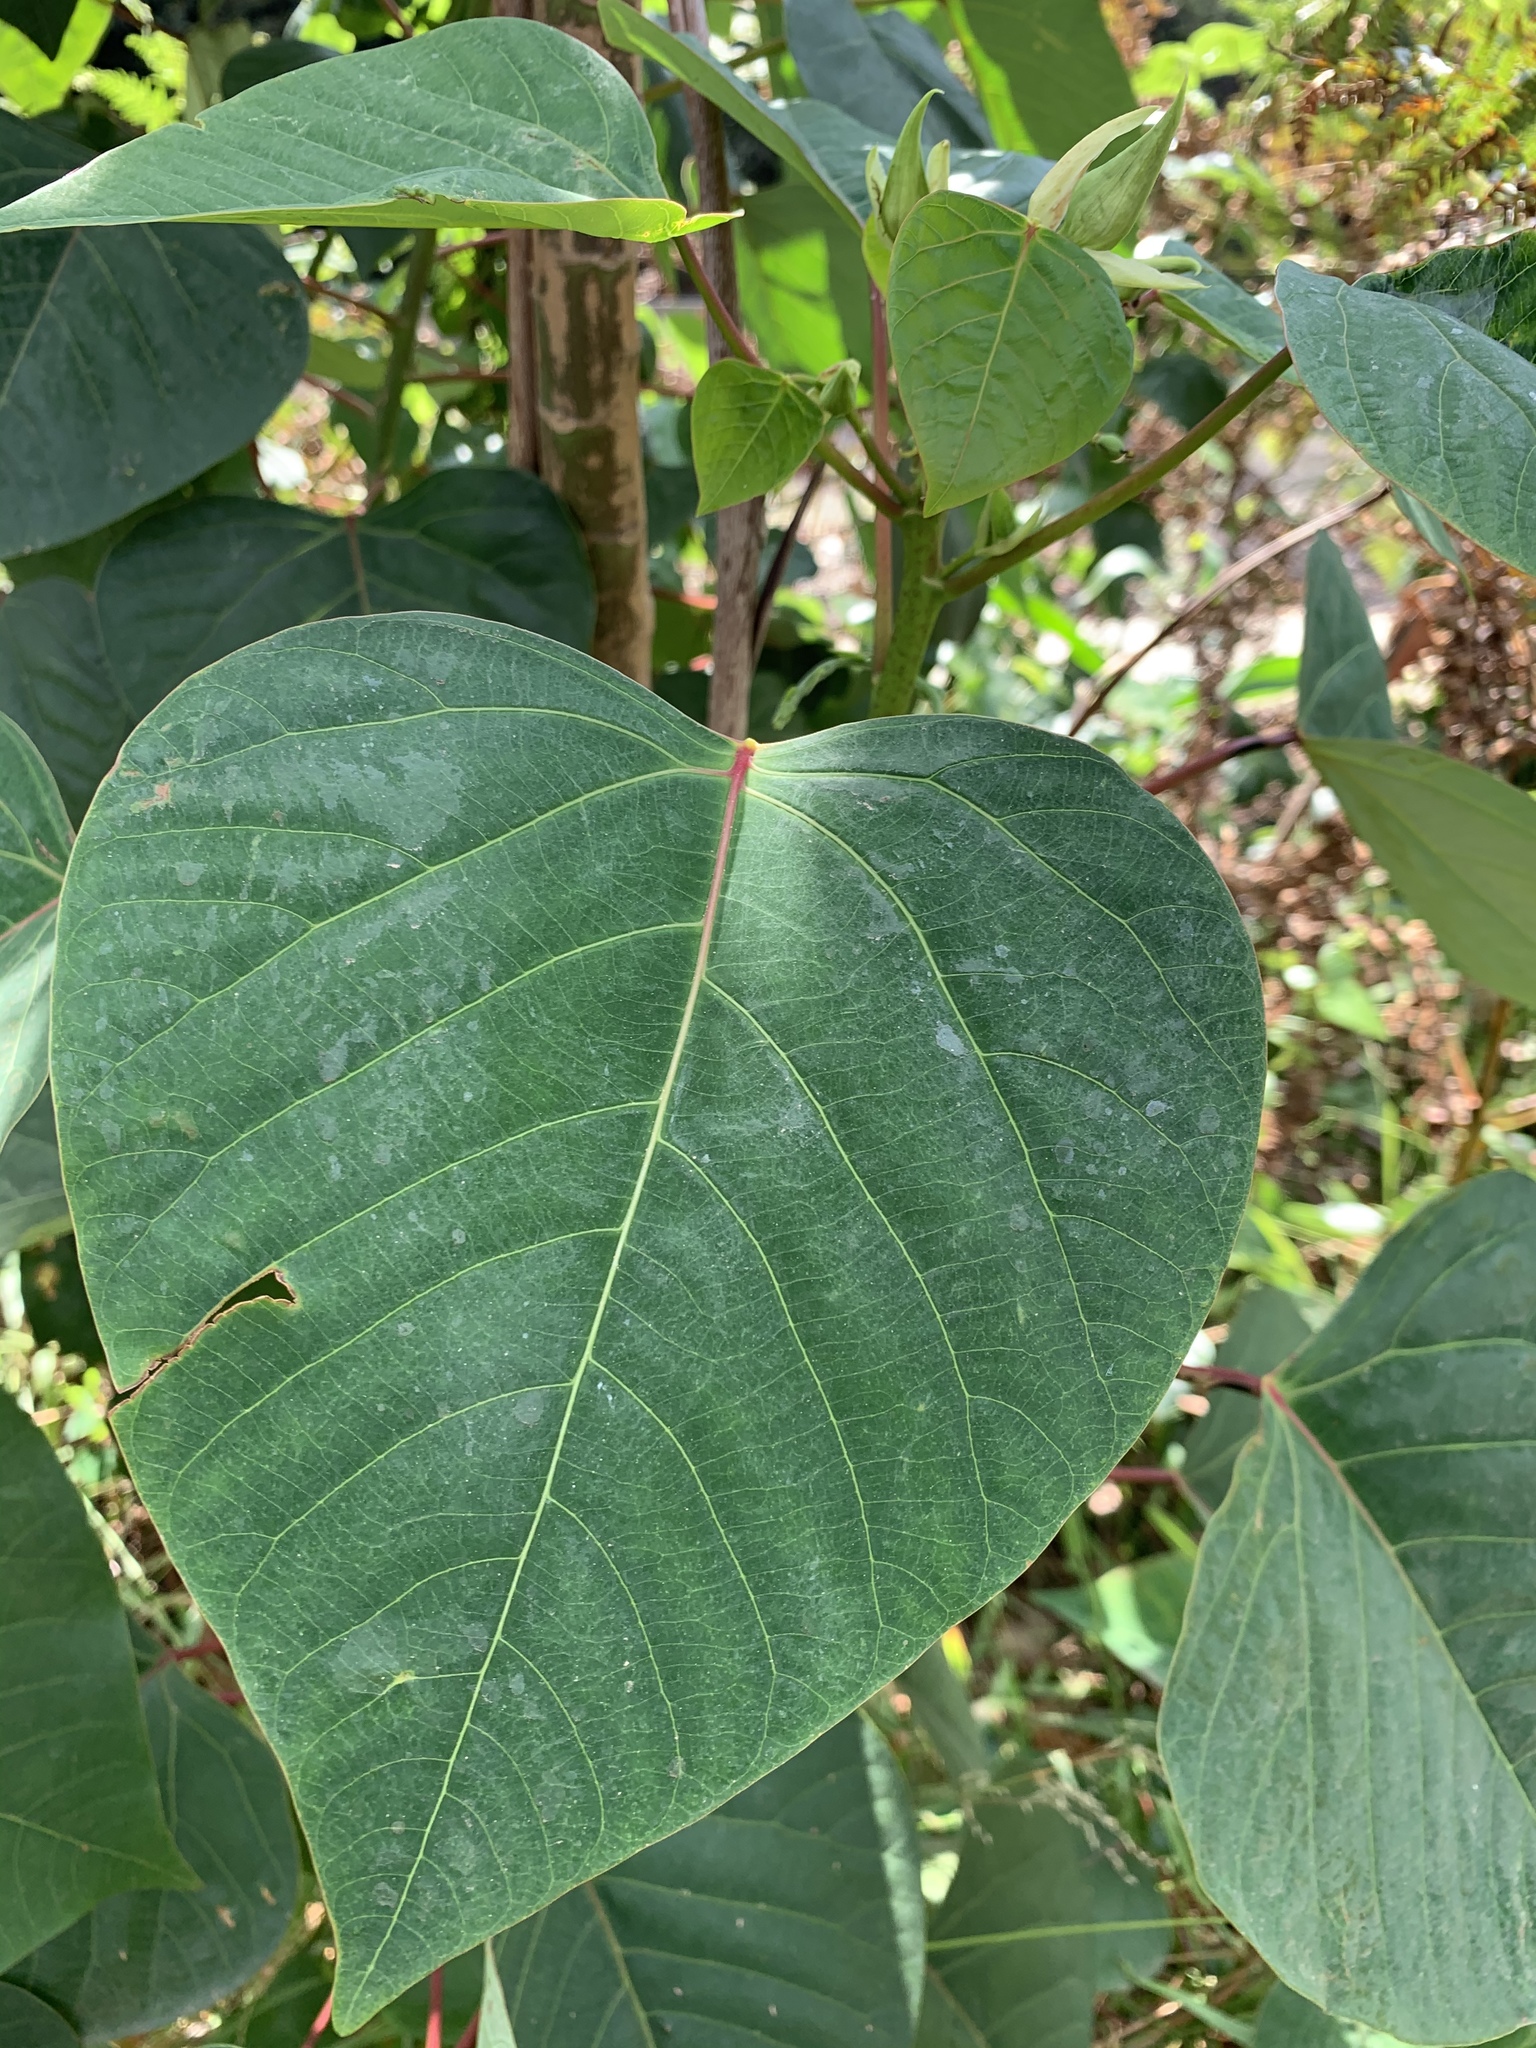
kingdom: Plantae
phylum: Tracheophyta
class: Magnoliopsida
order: Malpighiales
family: Euphorbiaceae
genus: Homalanthus
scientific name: Homalanthus populifolius
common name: Queensland poplar
